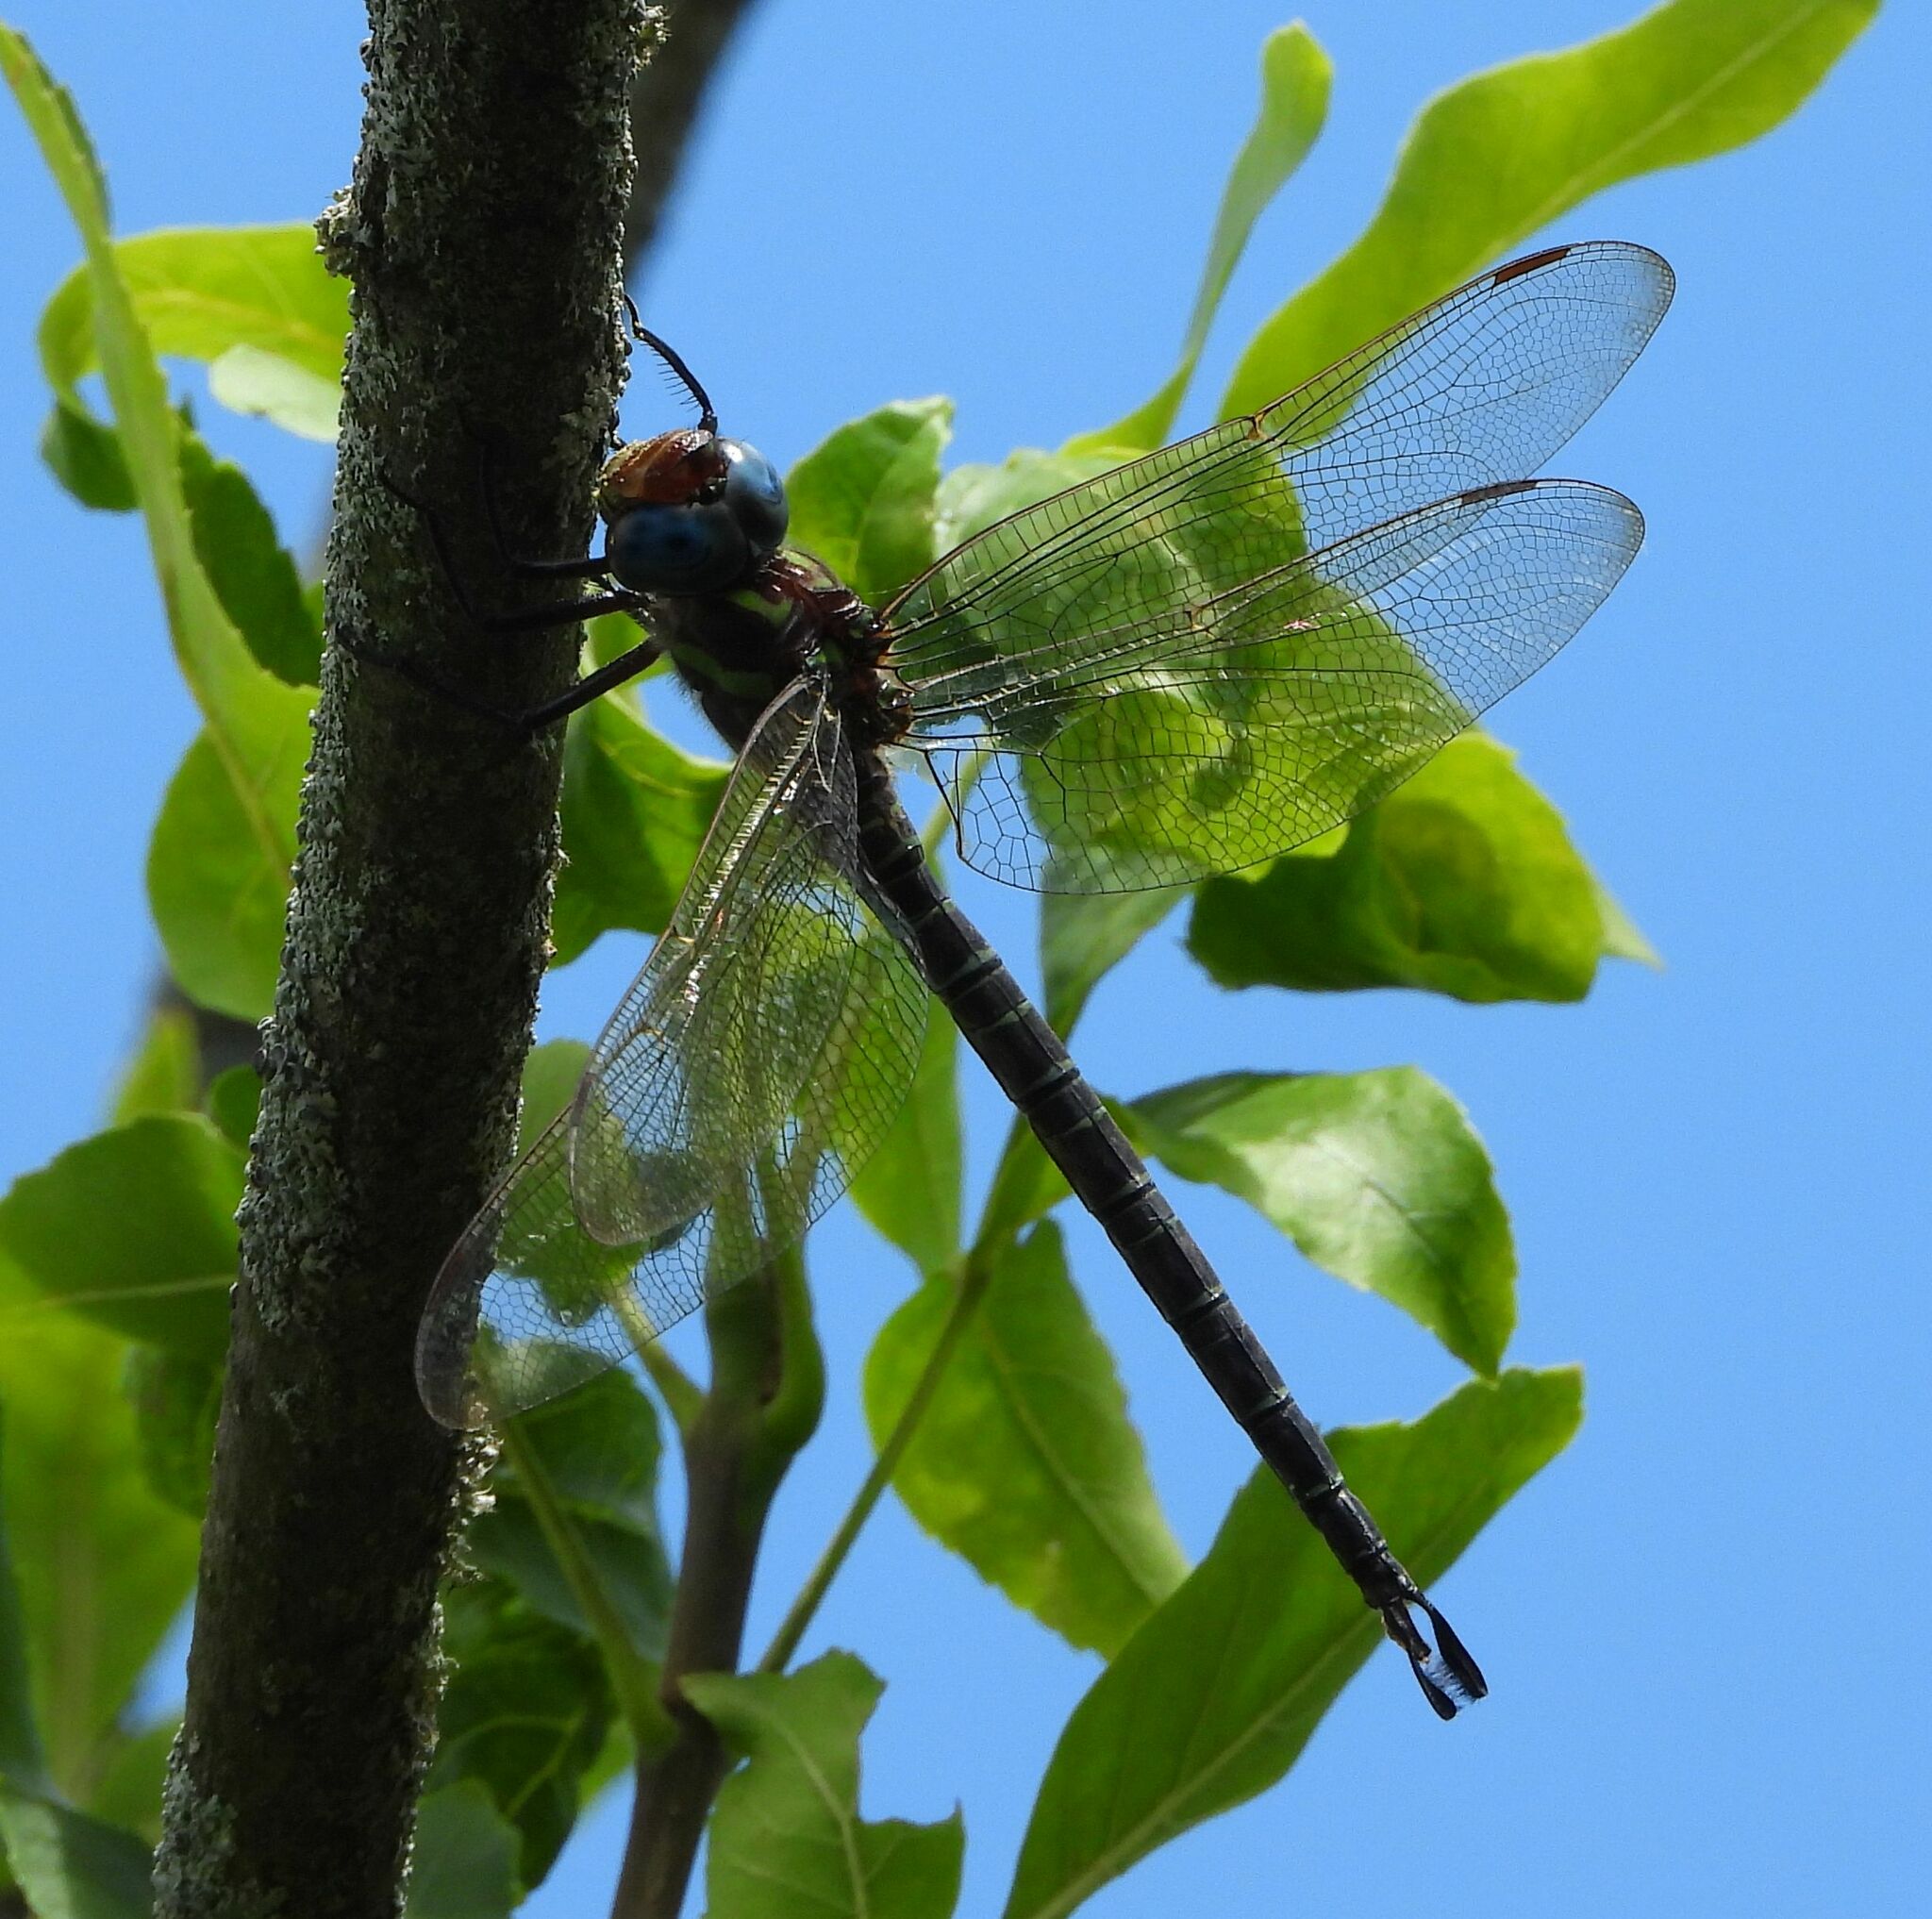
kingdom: Animalia
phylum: Arthropoda
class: Insecta
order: Odonata
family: Aeshnidae
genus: Epiaeschna
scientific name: Epiaeschna heros
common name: Swamp darner
